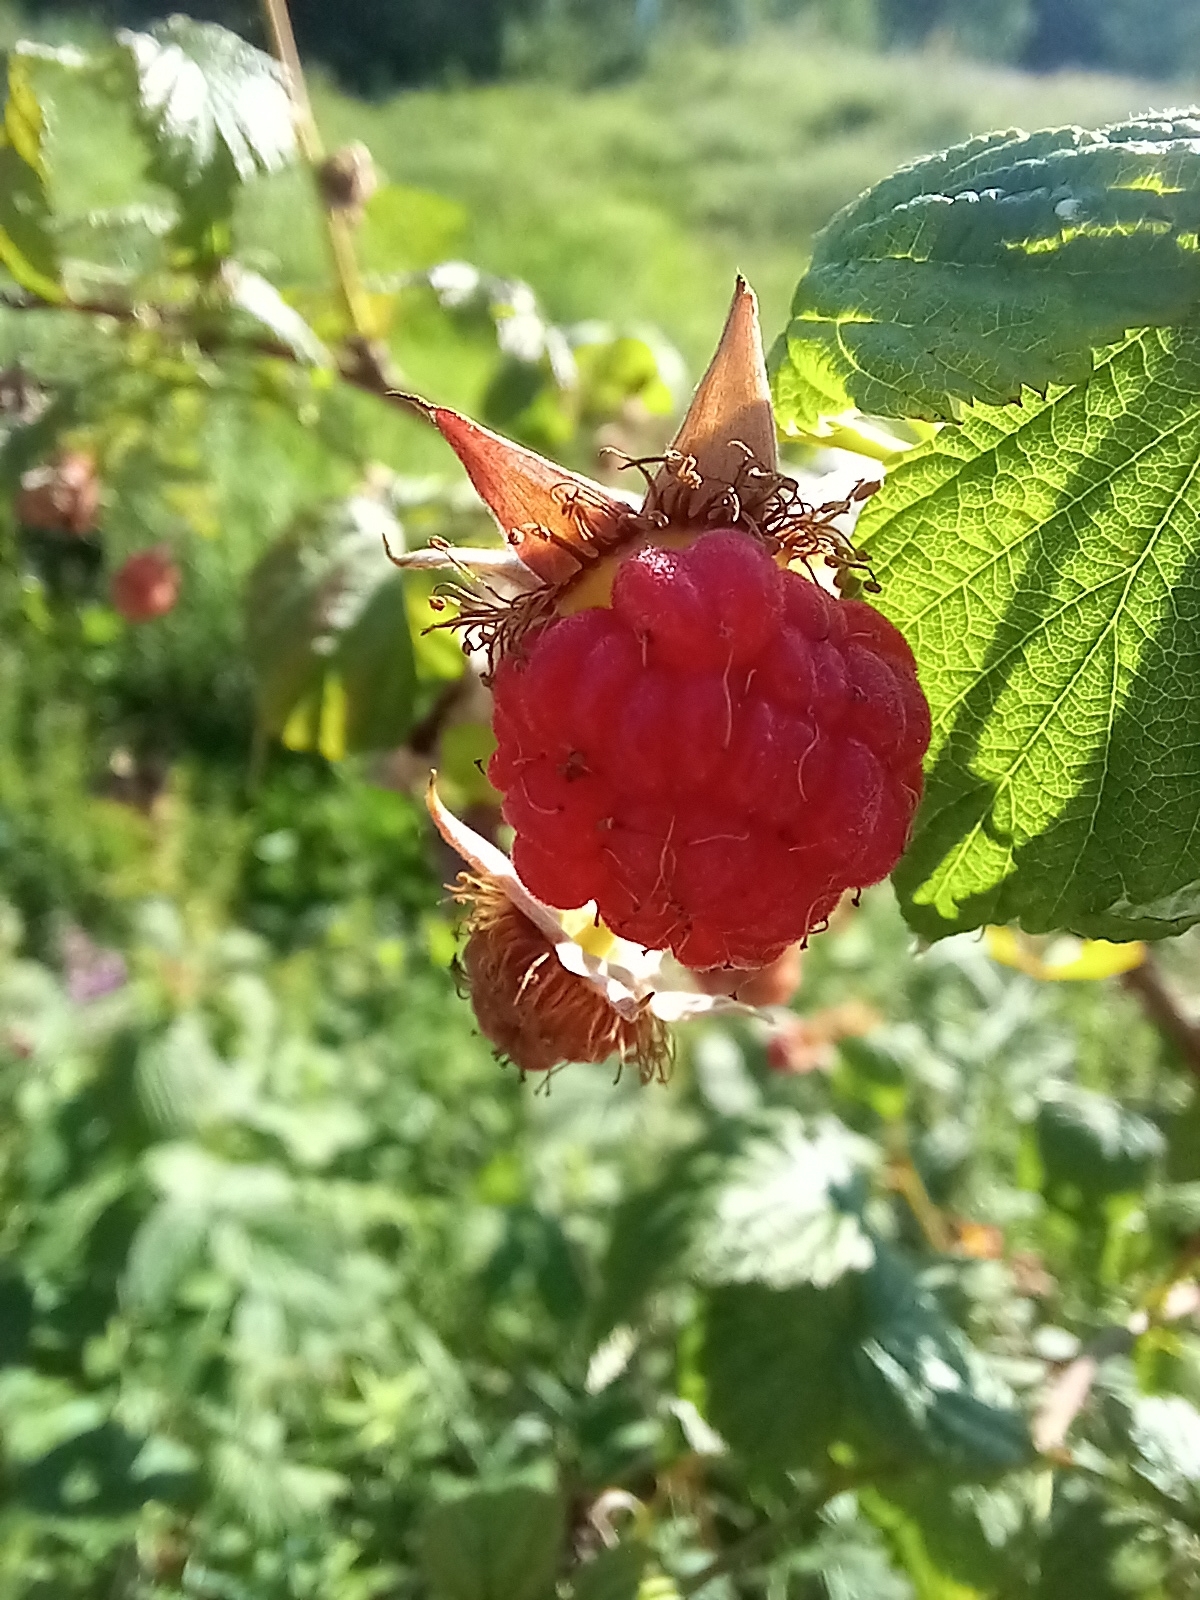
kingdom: Plantae
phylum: Tracheophyta
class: Magnoliopsida
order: Rosales
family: Rosaceae
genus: Rubus
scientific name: Rubus idaeus
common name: Raspberry
